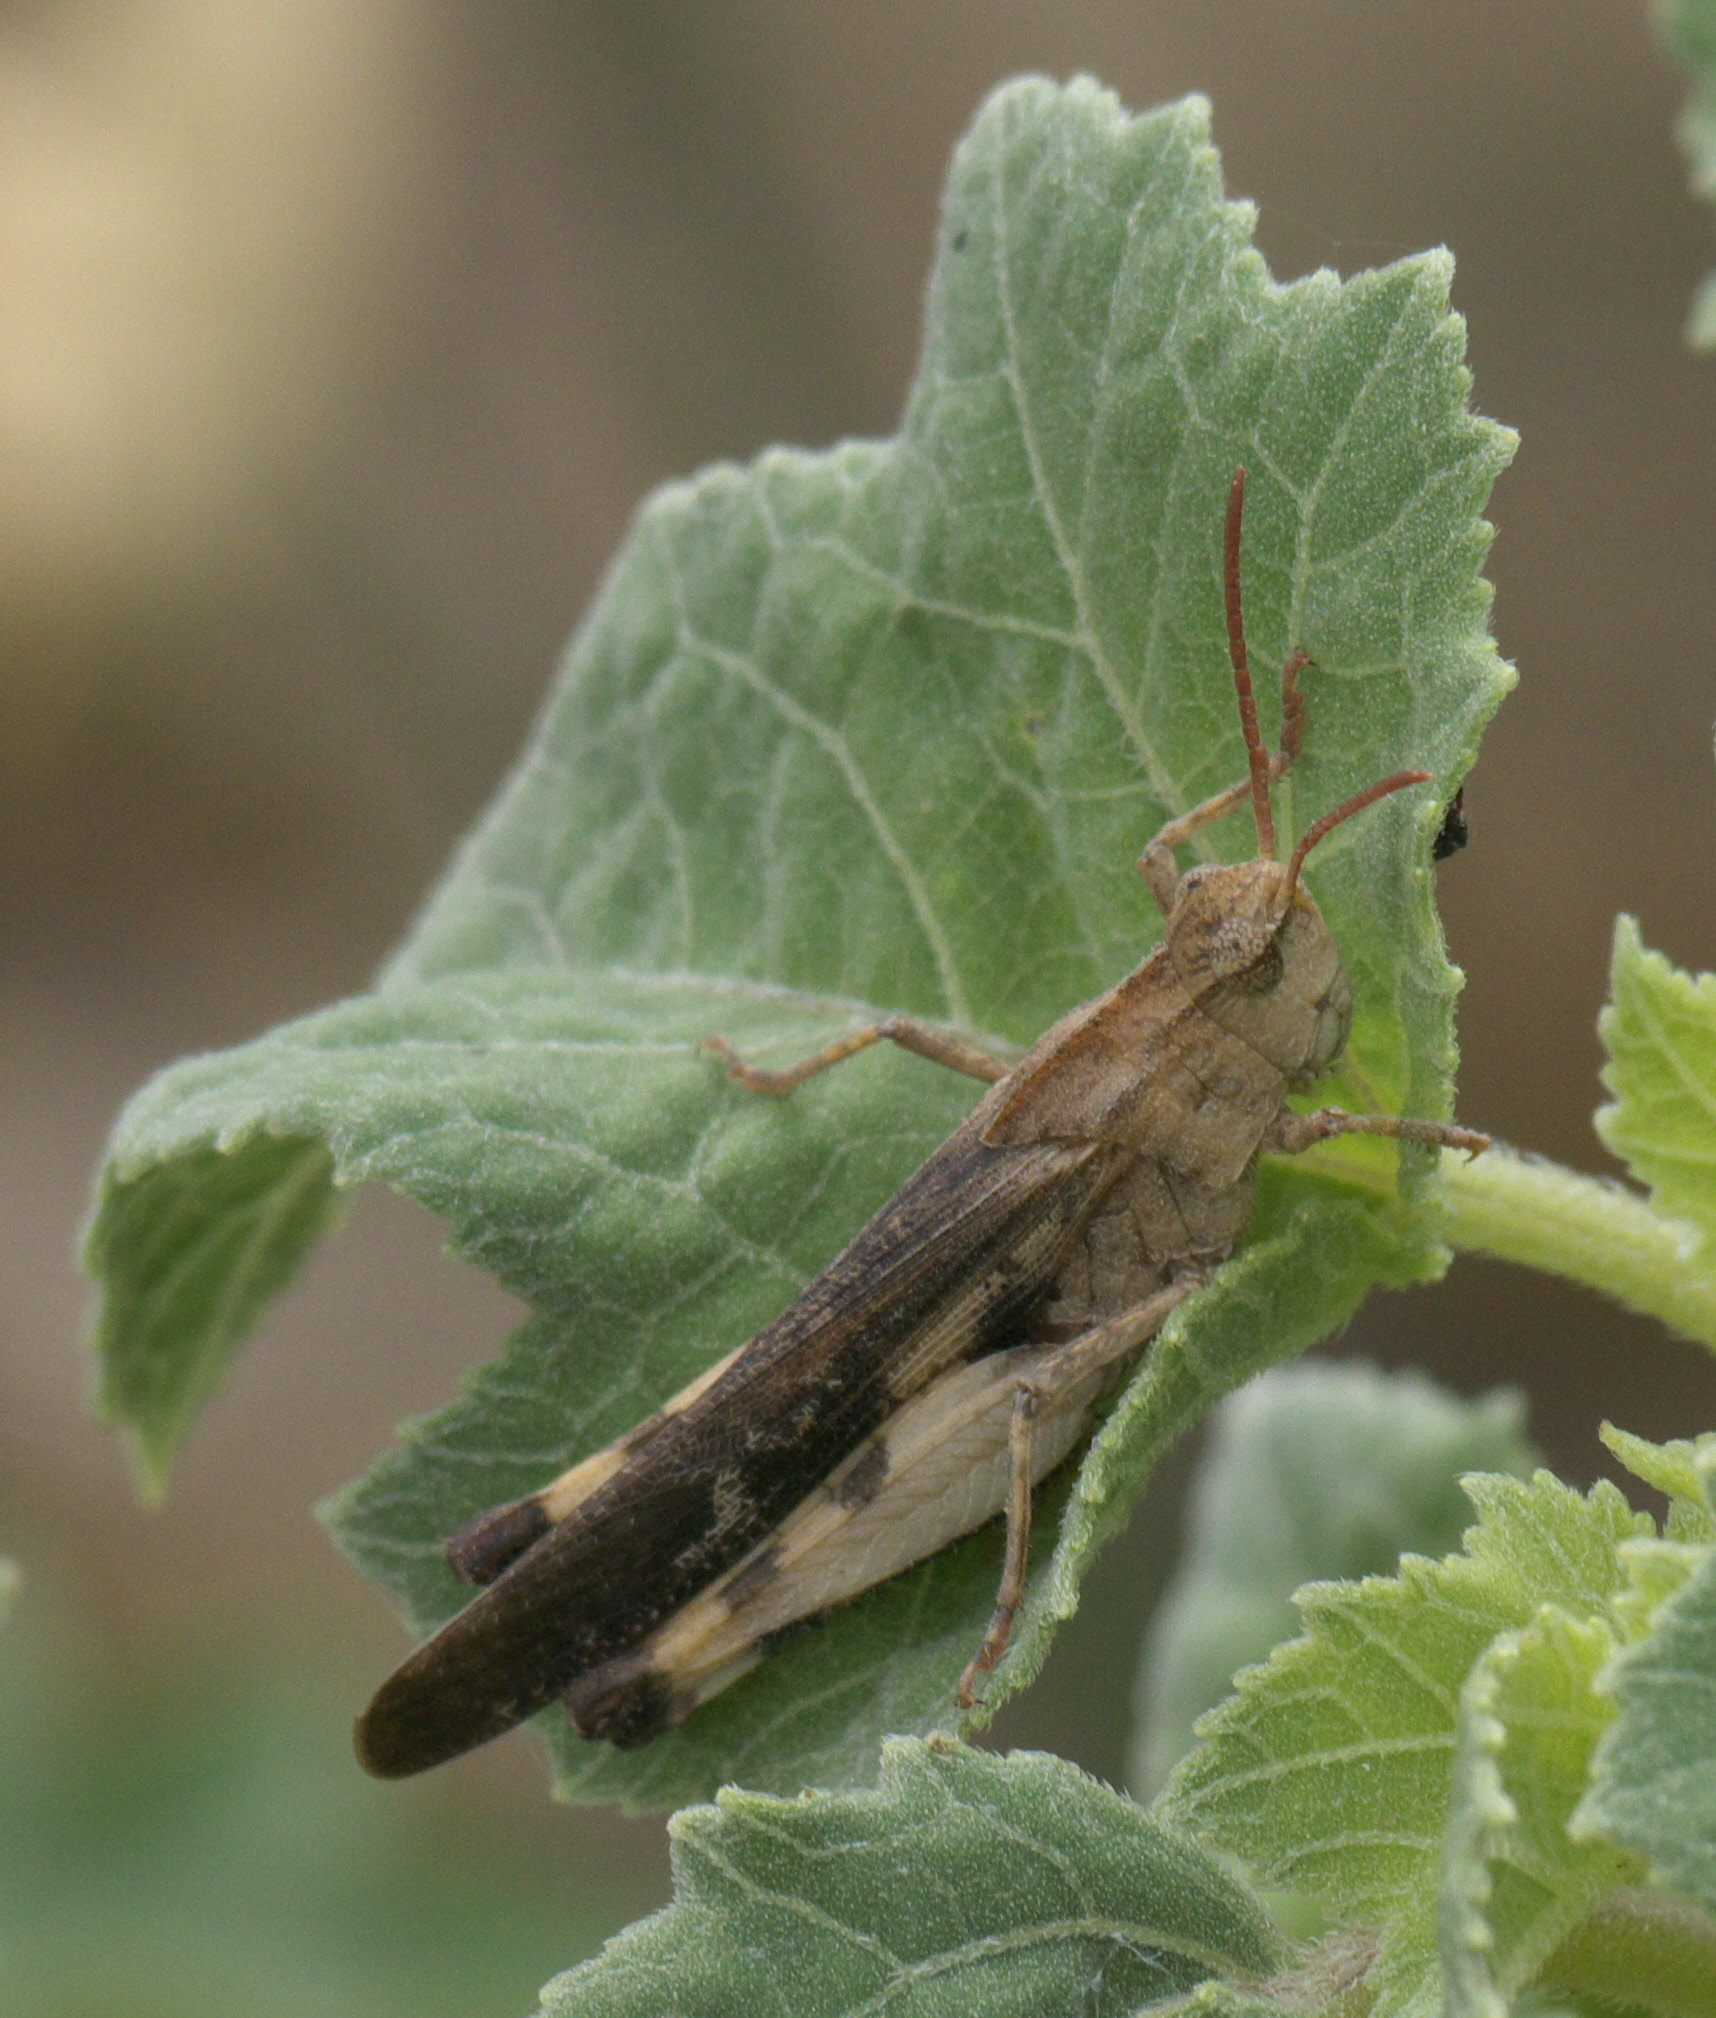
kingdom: Animalia
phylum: Arthropoda
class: Insecta
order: Orthoptera
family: Acrididae
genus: Chortophaga
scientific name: Chortophaga viridifasciata
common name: Green-striped grasshopper
